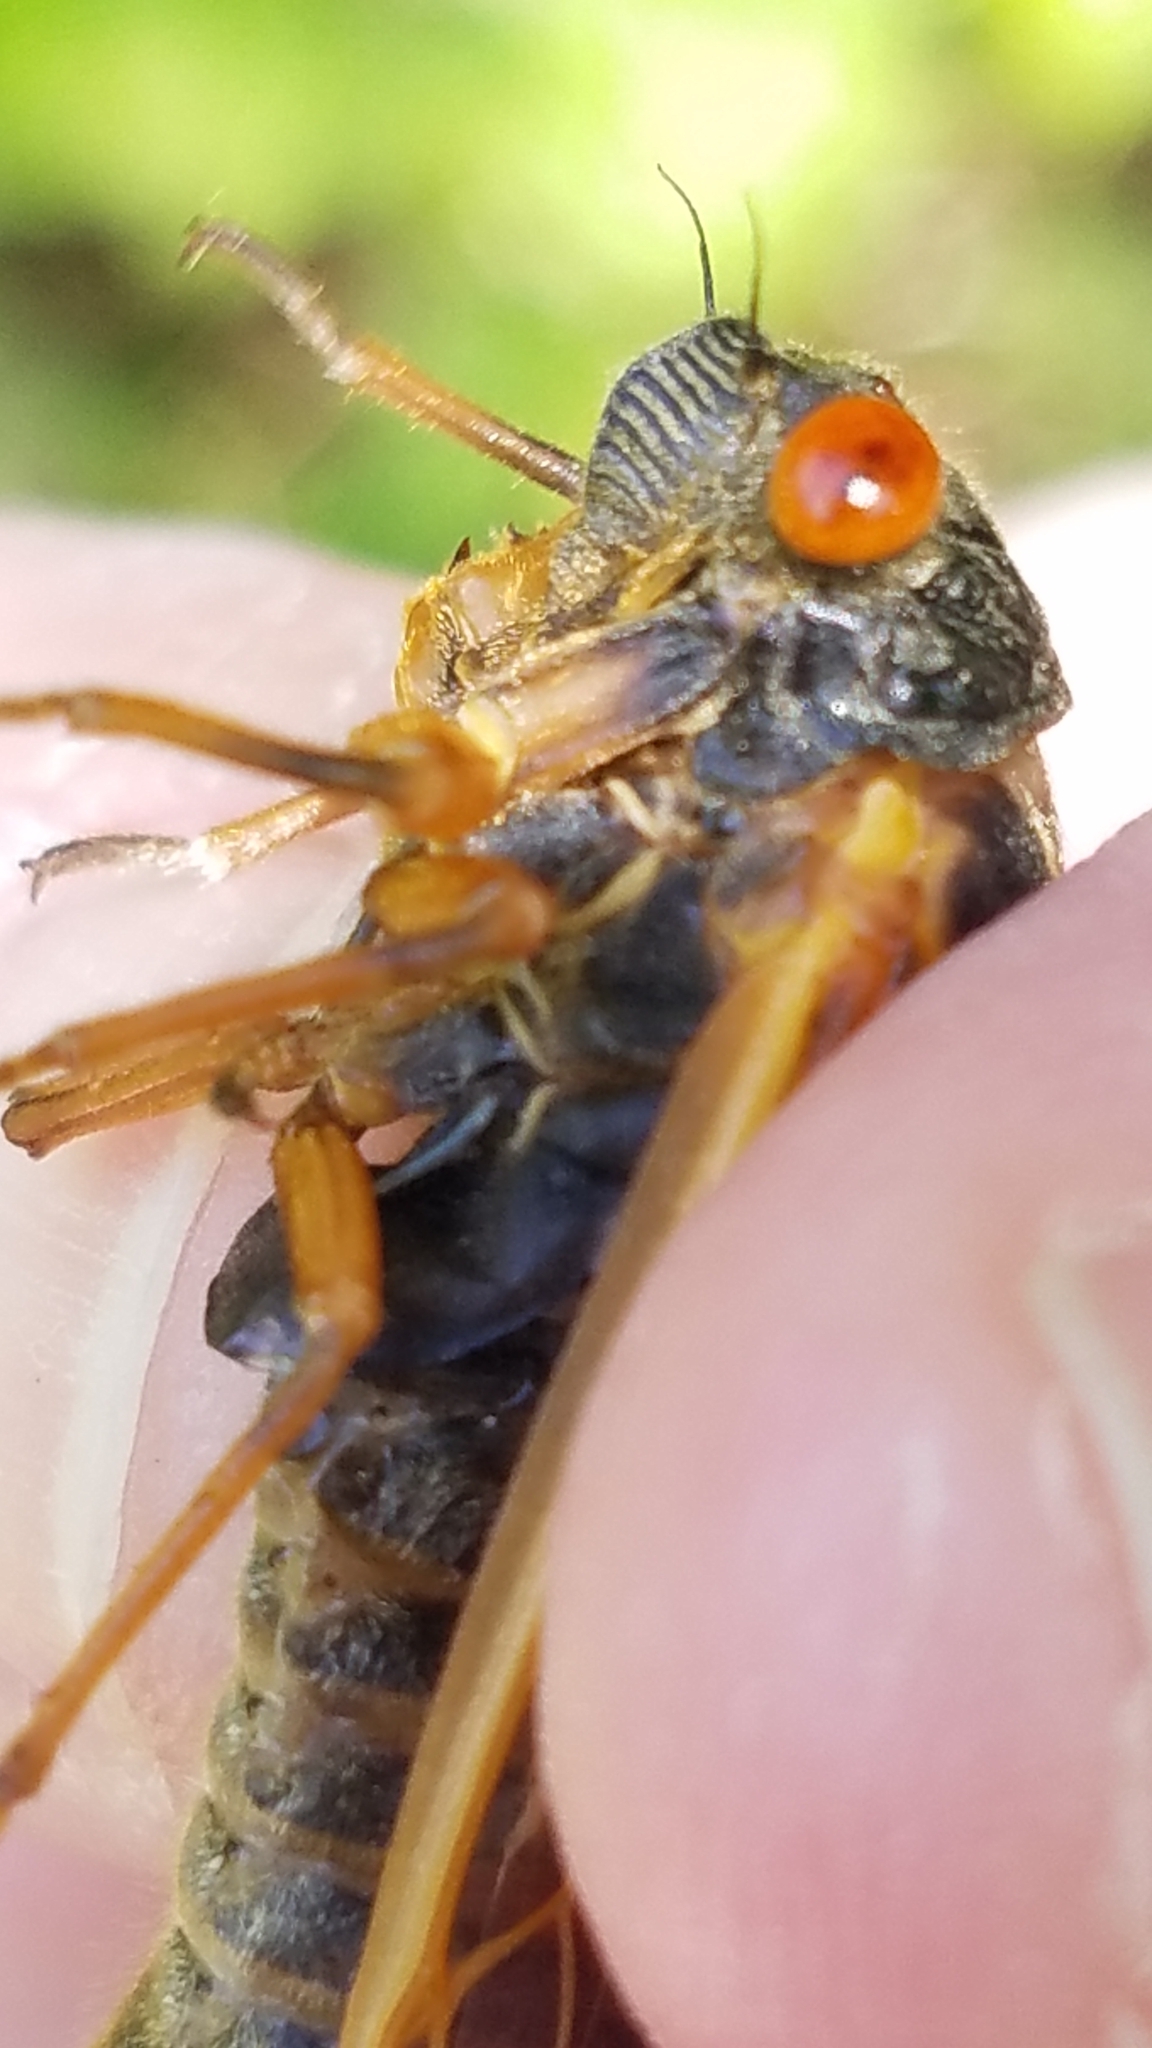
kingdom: Animalia
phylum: Arthropoda
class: Insecta
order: Hemiptera
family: Cicadidae
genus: Magicicada
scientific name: Magicicada cassini
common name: Cassin's 17-year cicada
